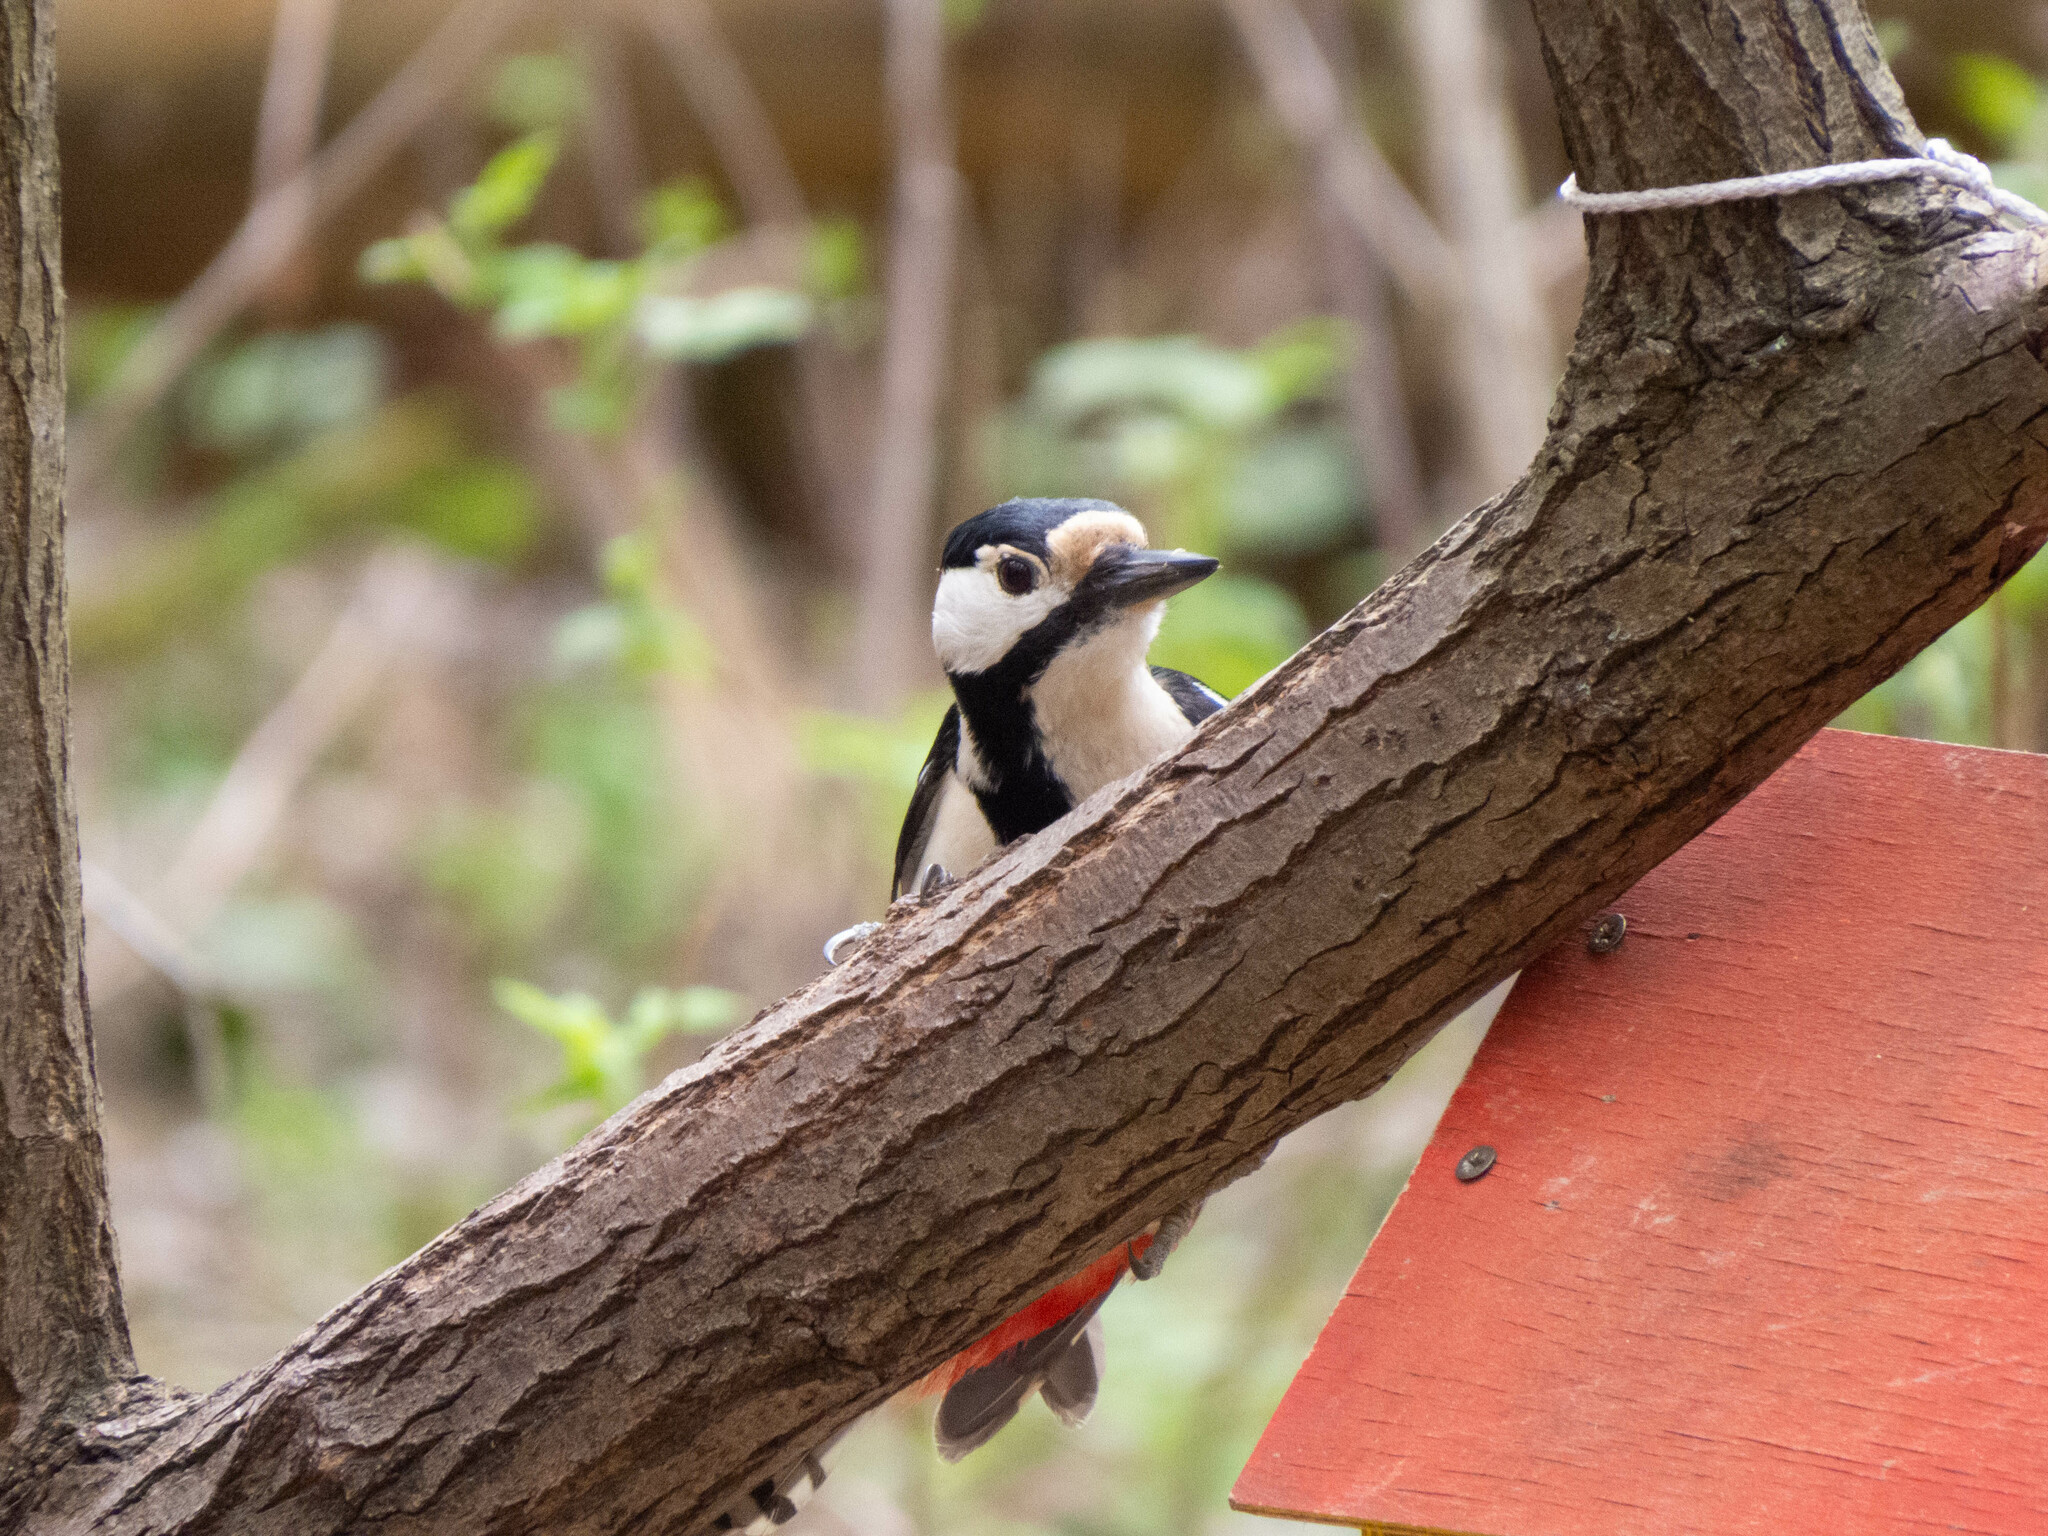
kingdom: Animalia
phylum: Chordata
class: Aves
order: Piciformes
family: Picidae
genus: Dendrocopos
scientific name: Dendrocopos major
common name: Great spotted woodpecker
